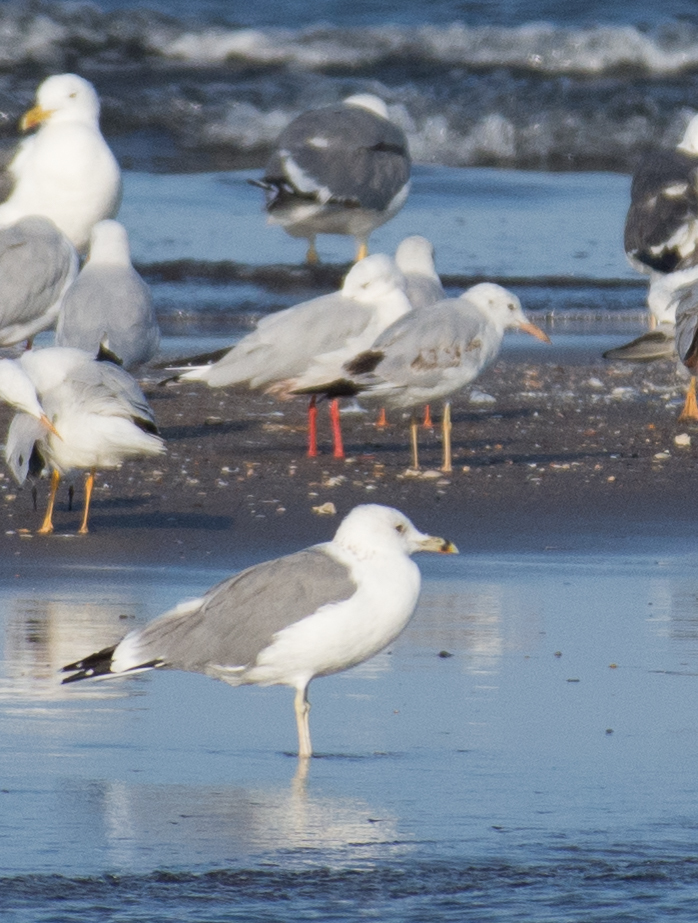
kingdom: Animalia
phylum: Chordata
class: Aves
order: Charadriiformes
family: Laridae
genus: Larus
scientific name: Larus cachinnans
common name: Caspian gull
